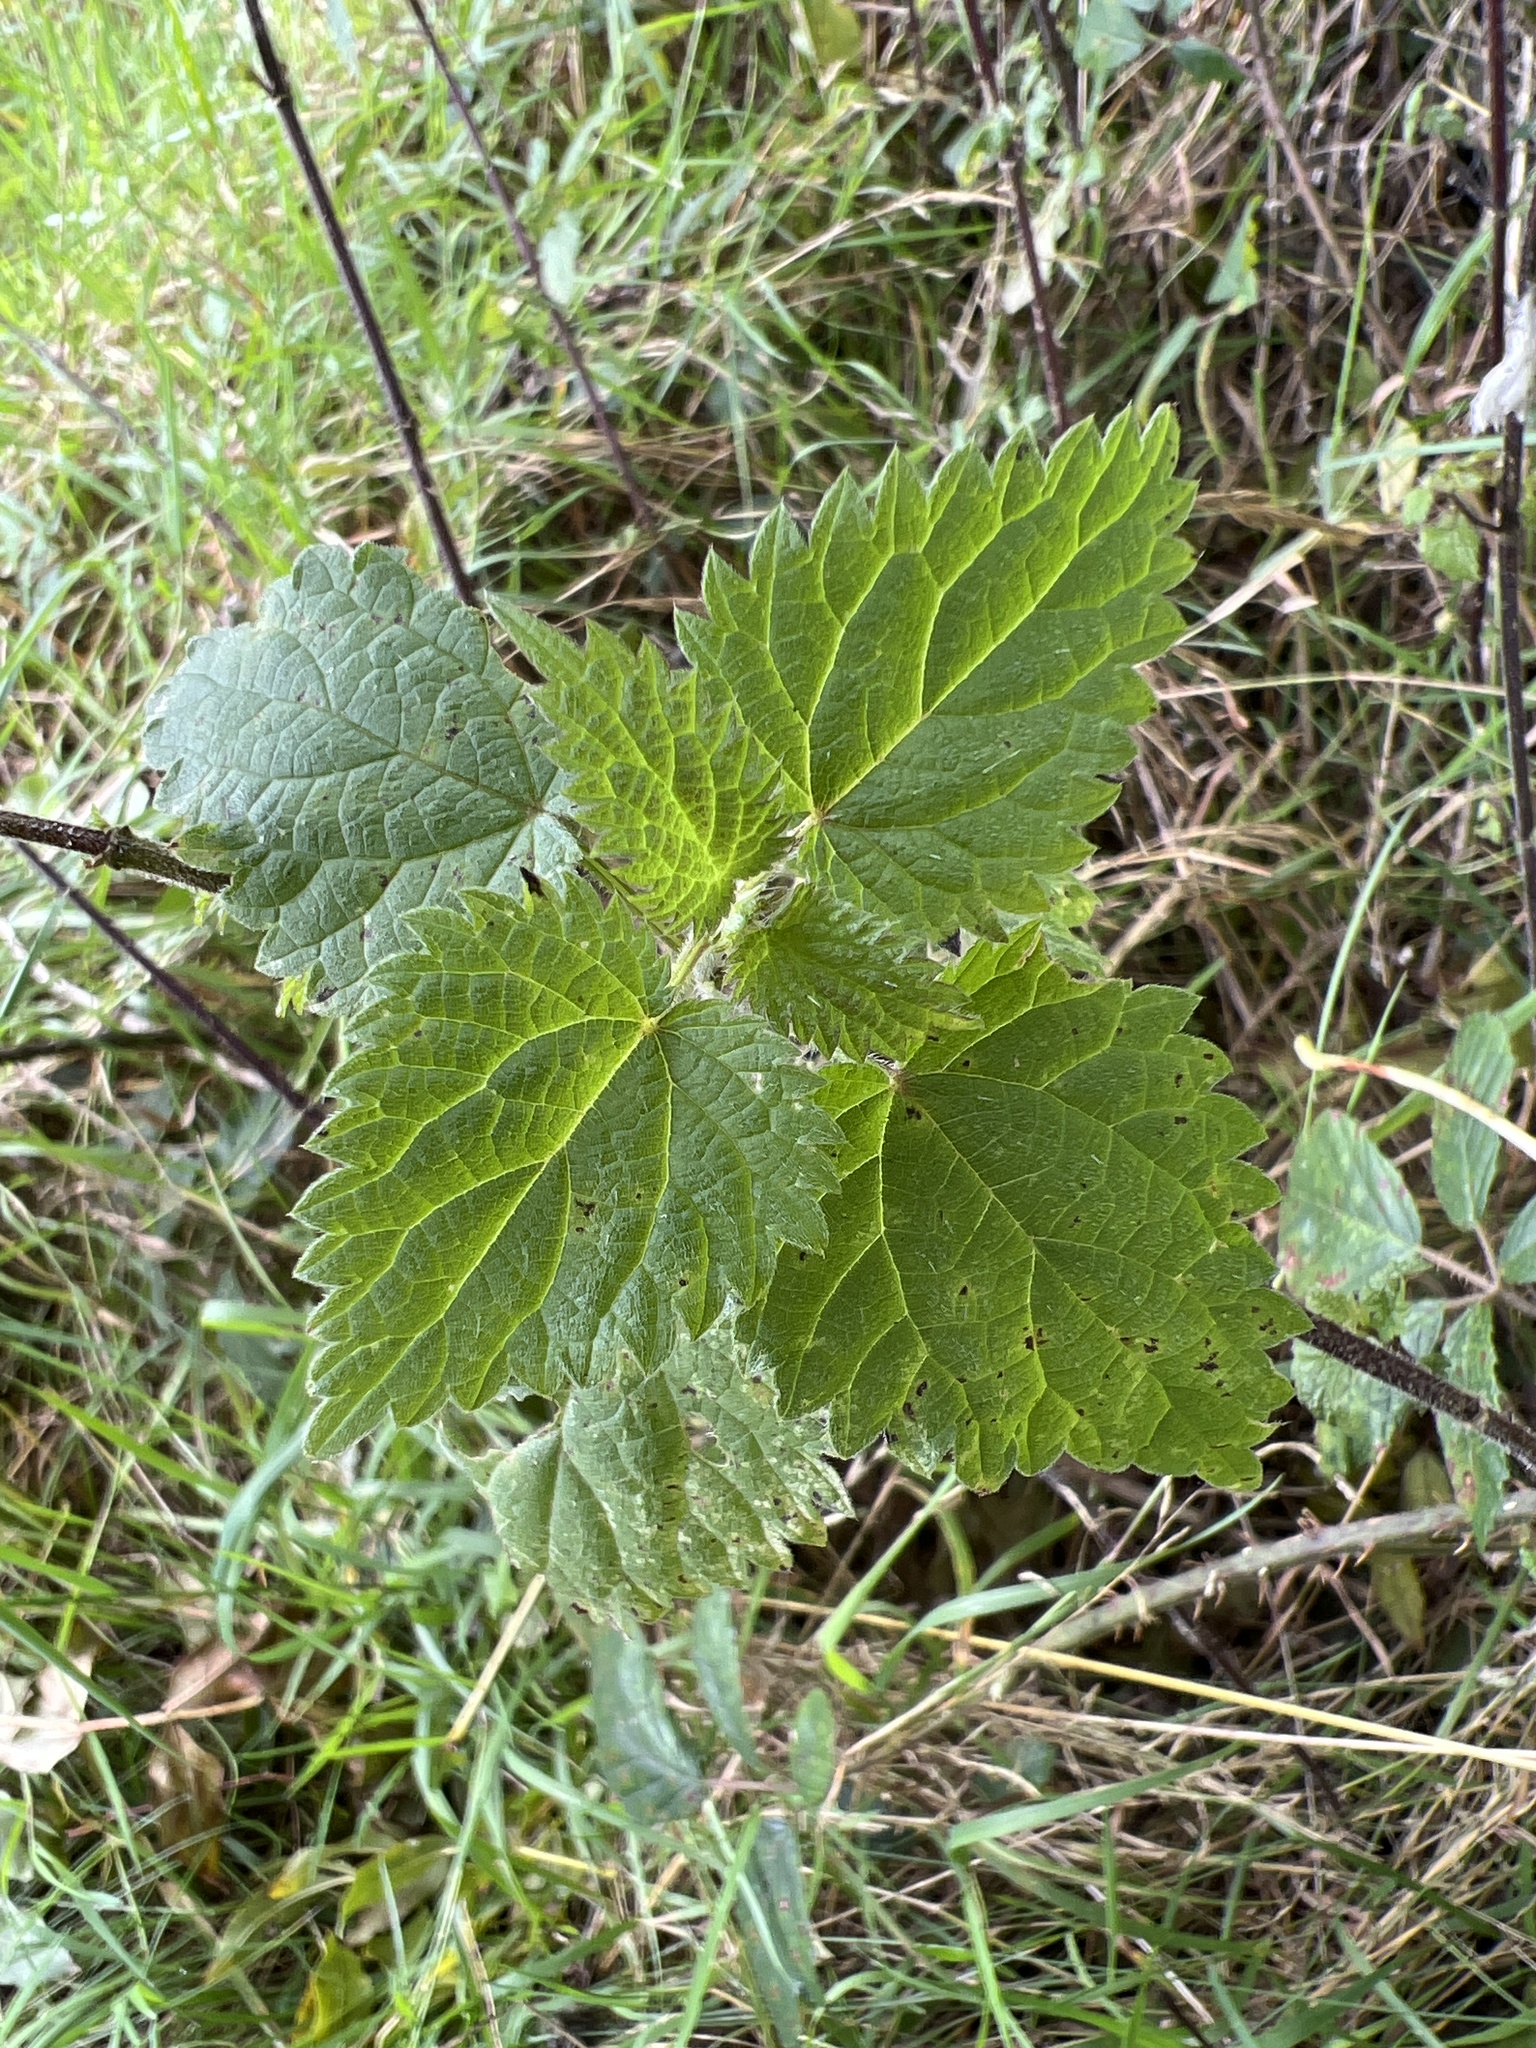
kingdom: Plantae
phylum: Tracheophyta
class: Magnoliopsida
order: Rosales
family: Urticaceae
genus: Urtica
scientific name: Urtica dioica
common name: Common nettle
